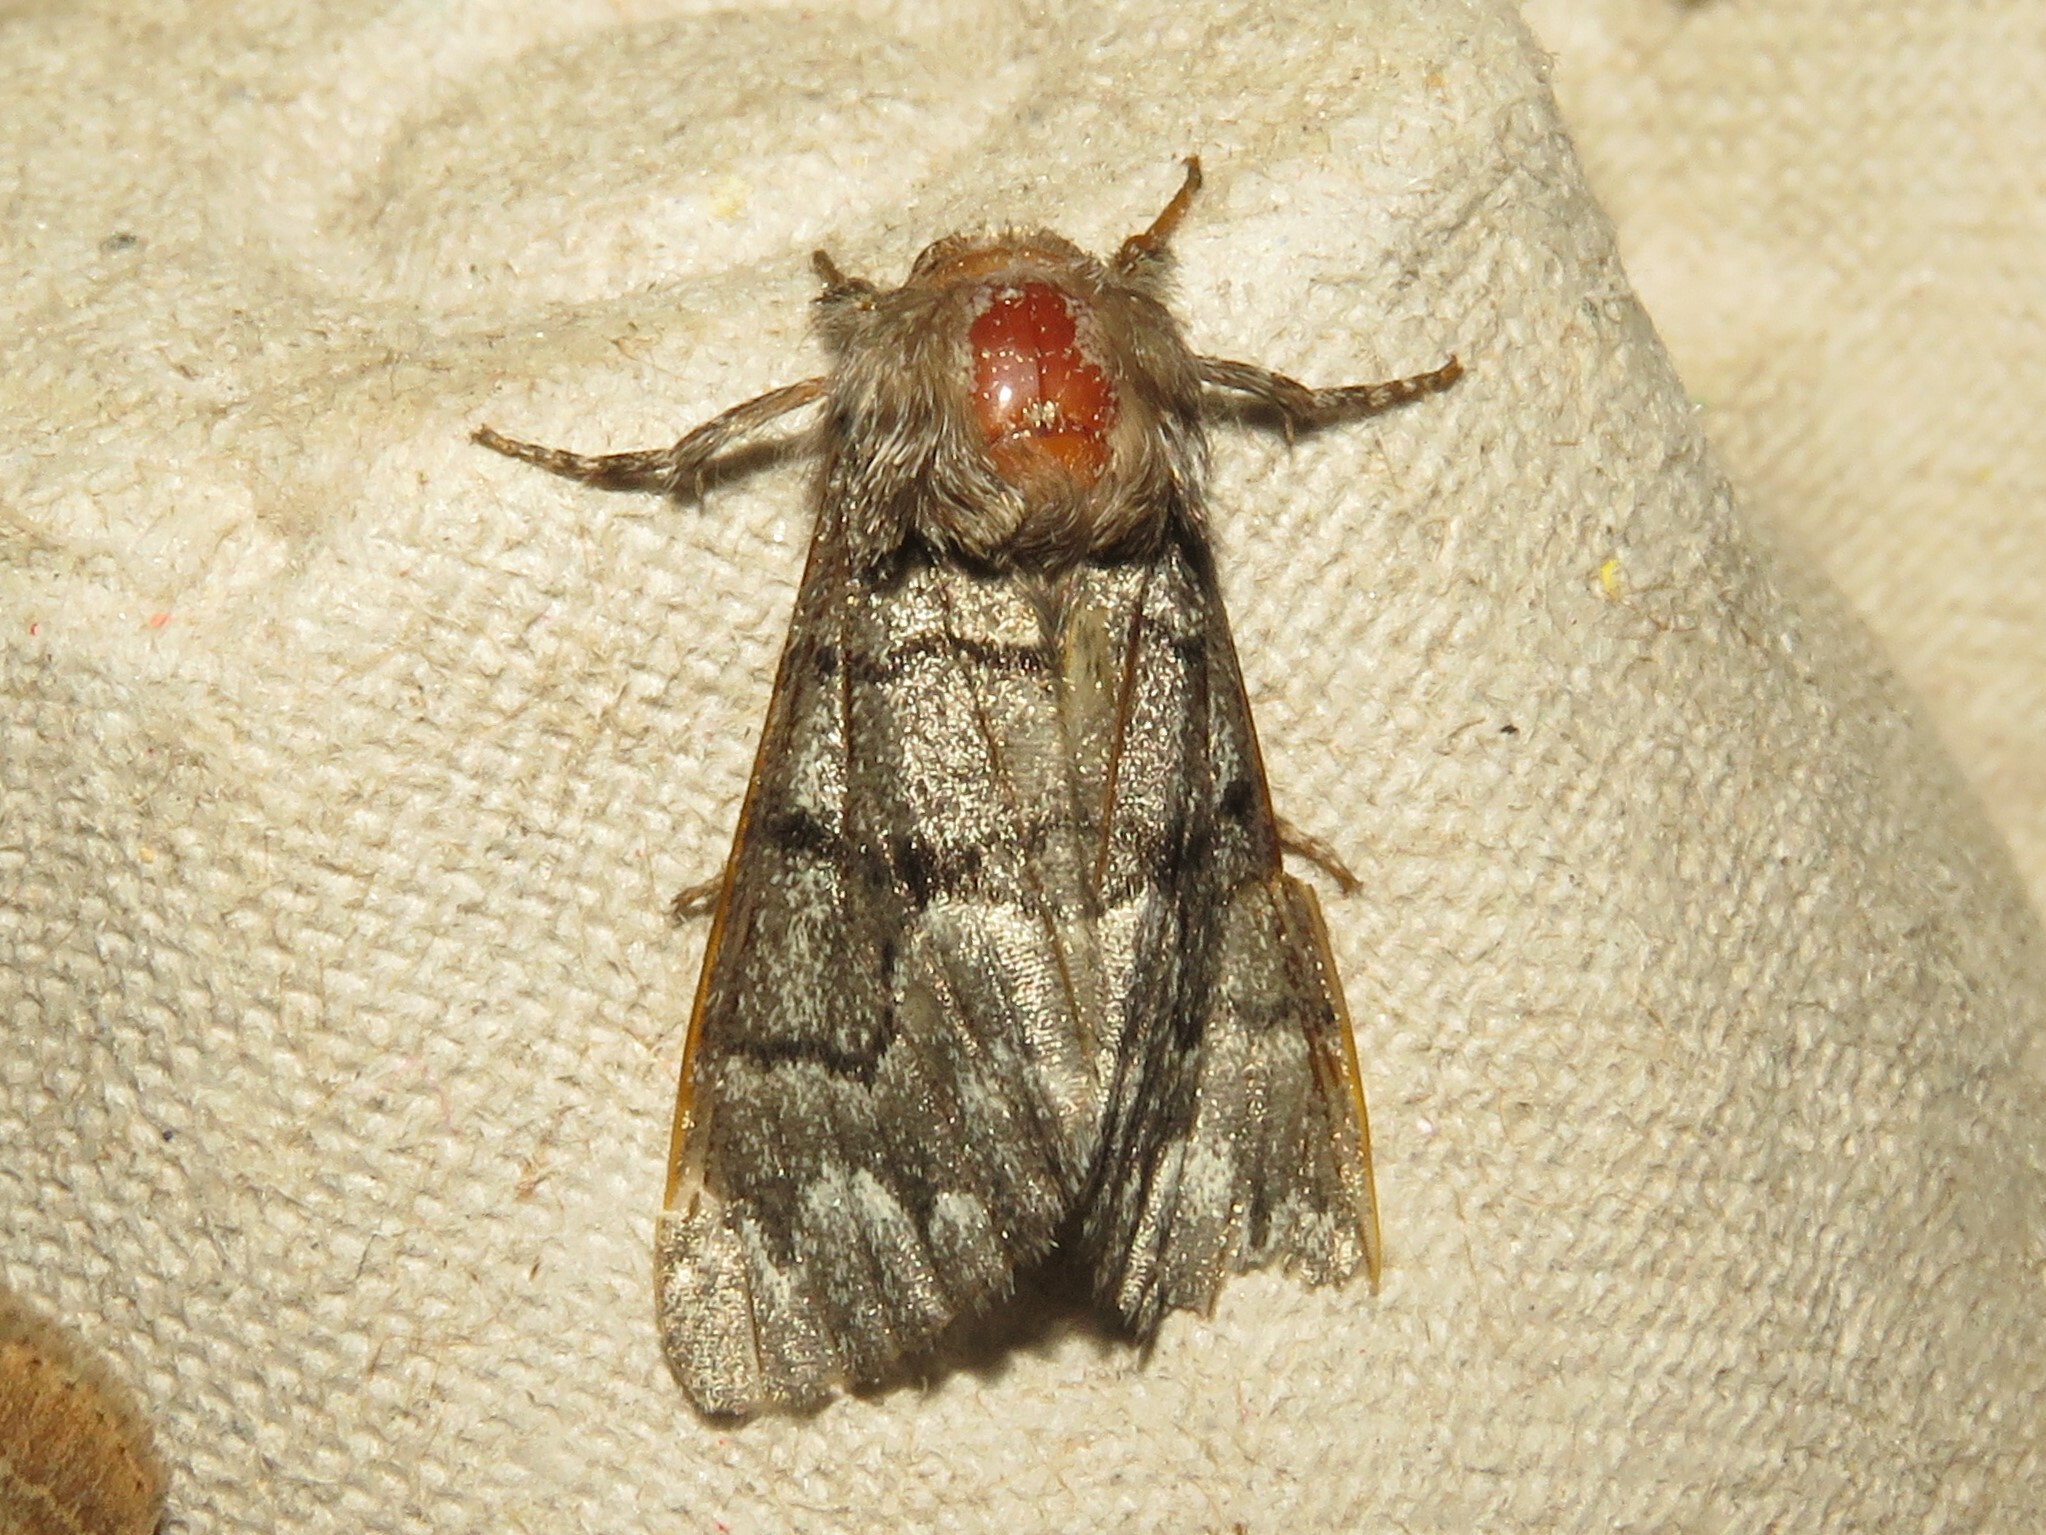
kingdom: Animalia
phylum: Arthropoda
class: Insecta
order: Lepidoptera
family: Noctuidae
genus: Panthea
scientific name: Panthea furcilla
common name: Eastern panthea moth
